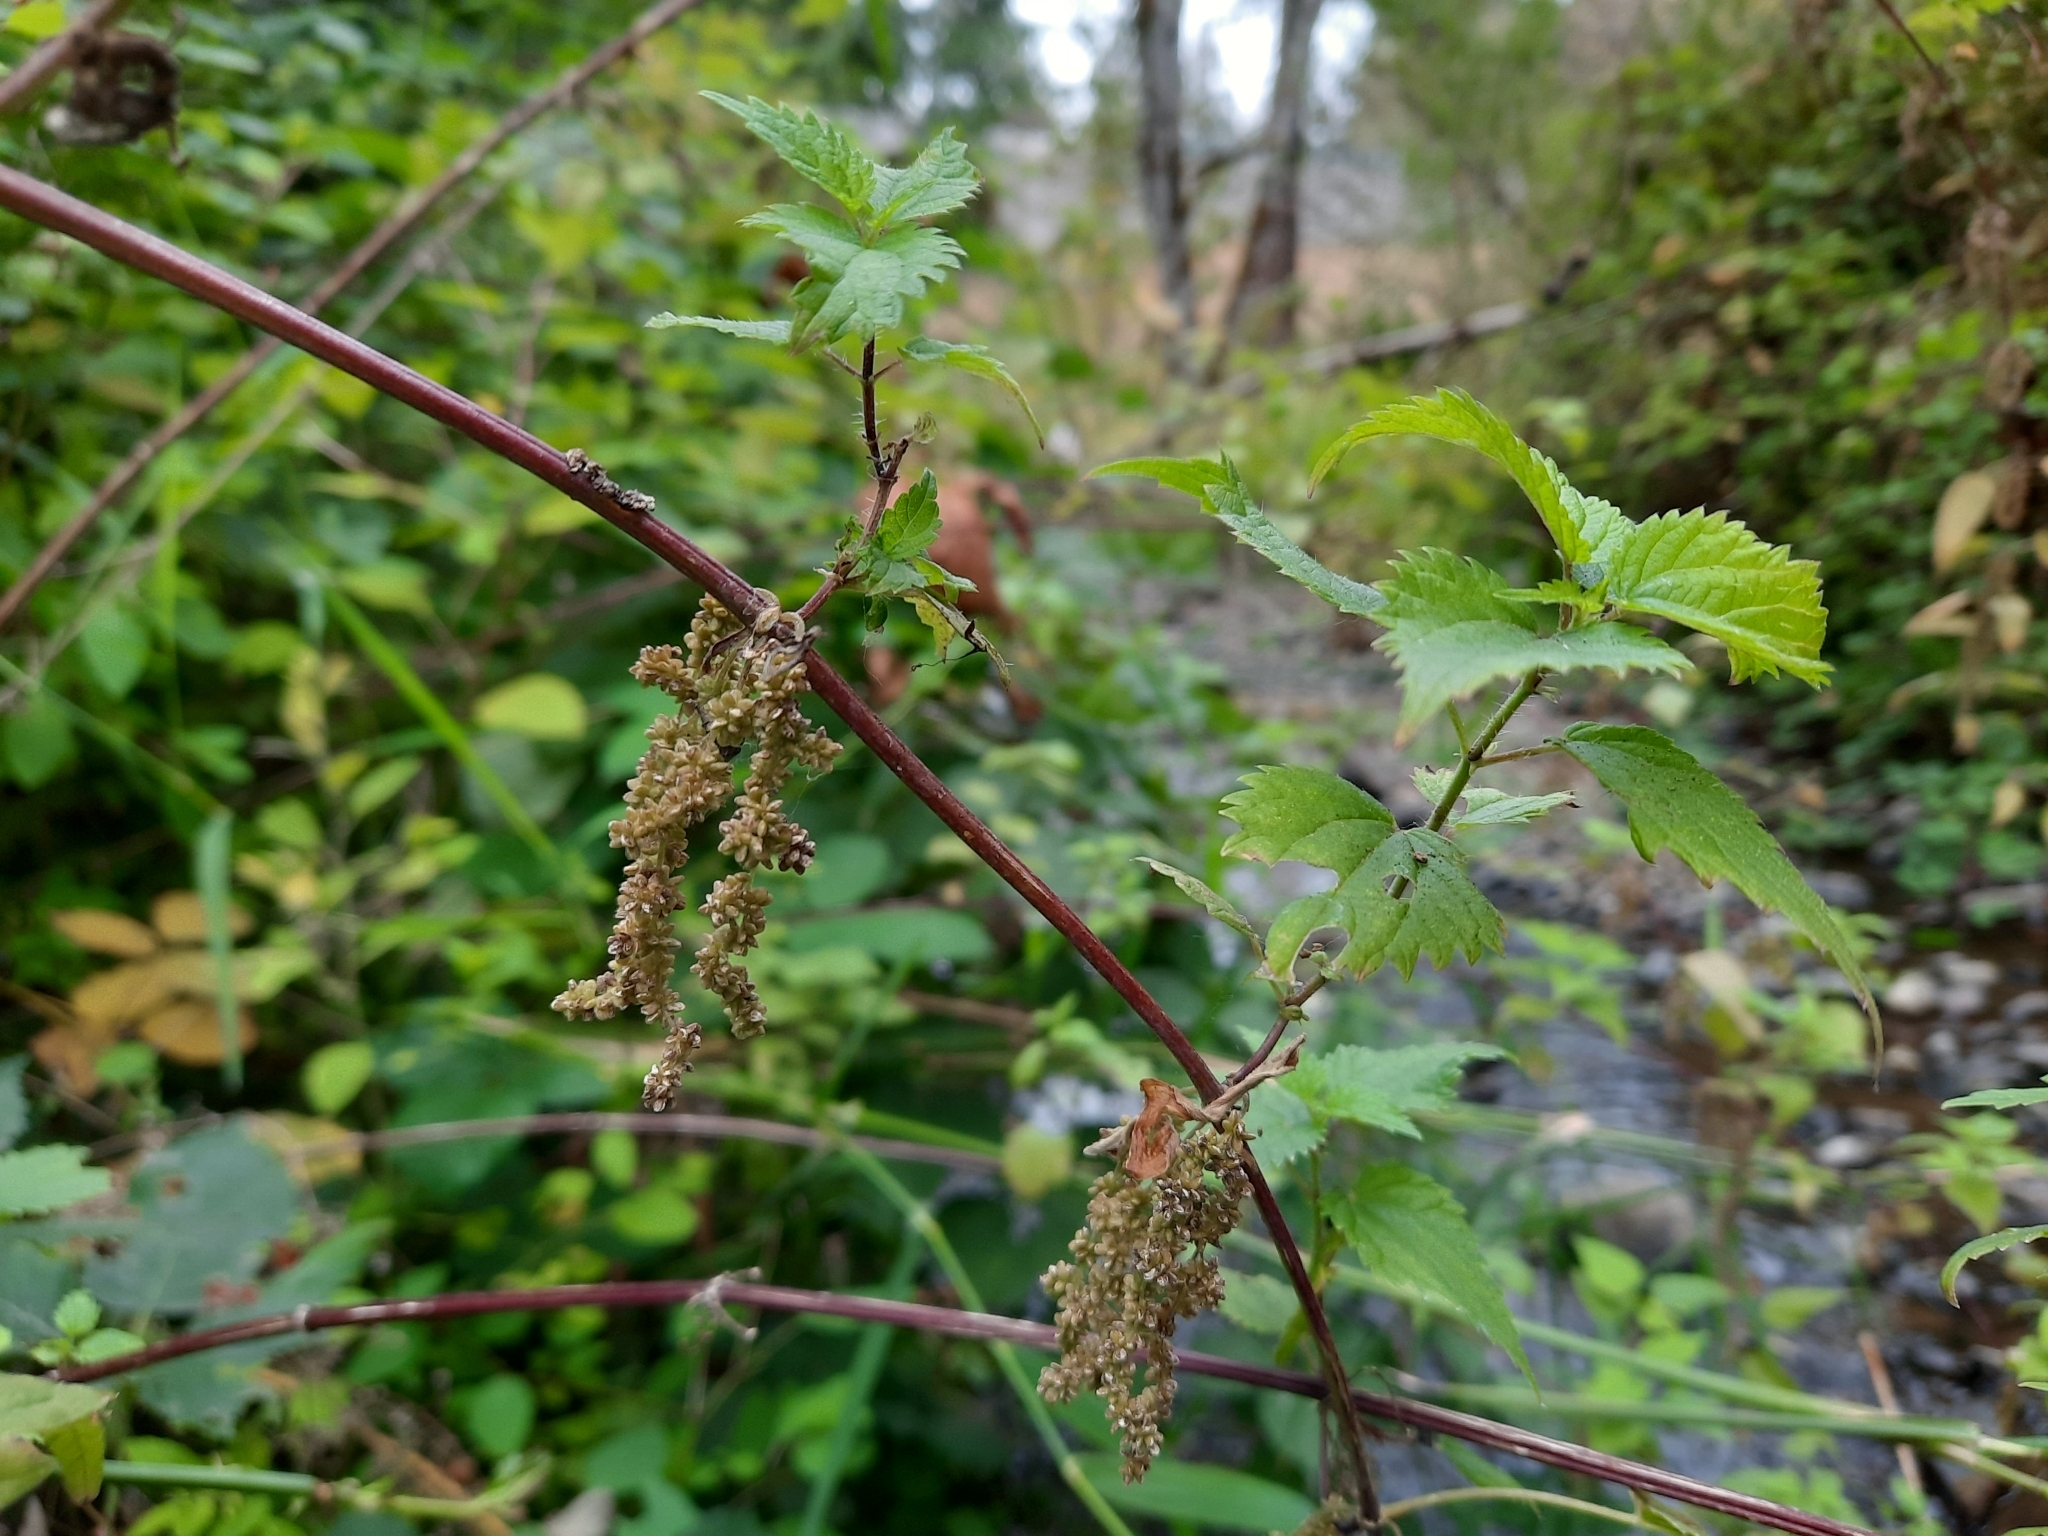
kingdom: Plantae
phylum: Tracheophyta
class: Magnoliopsida
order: Rosales
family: Urticaceae
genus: Urtica
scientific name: Urtica gracilis
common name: Slender stinging nettle
